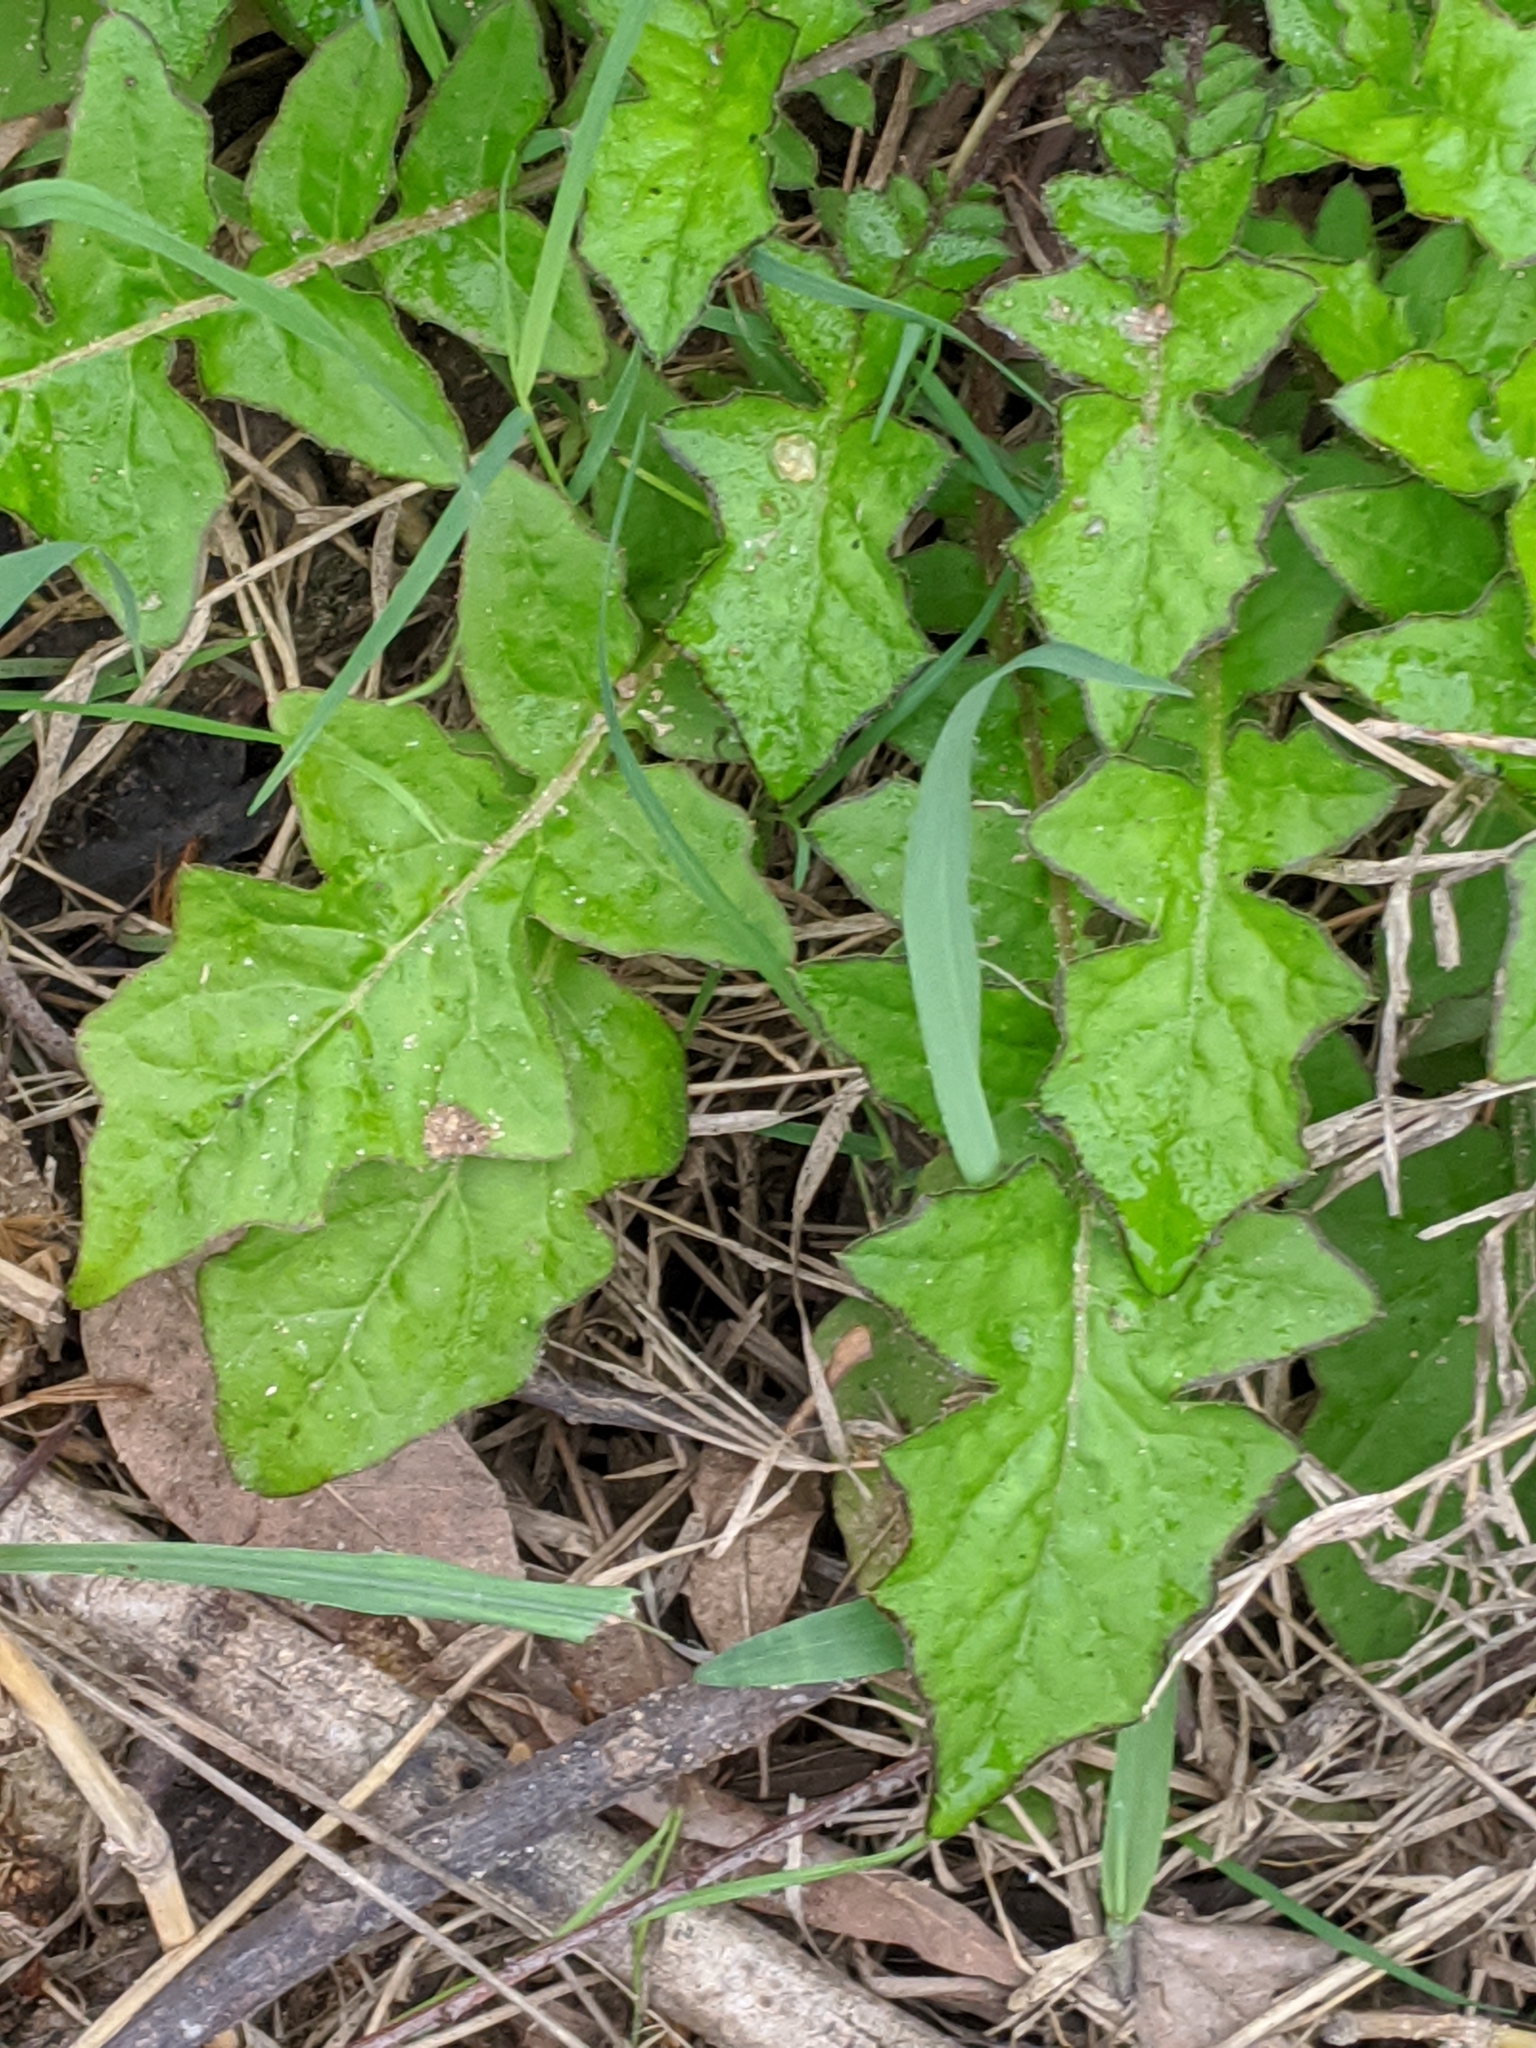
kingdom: Plantae
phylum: Tracheophyta
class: Magnoliopsida
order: Asterales
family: Asteraceae
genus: Youngia
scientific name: Youngia japonica
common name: Oriental false hawksbeard
